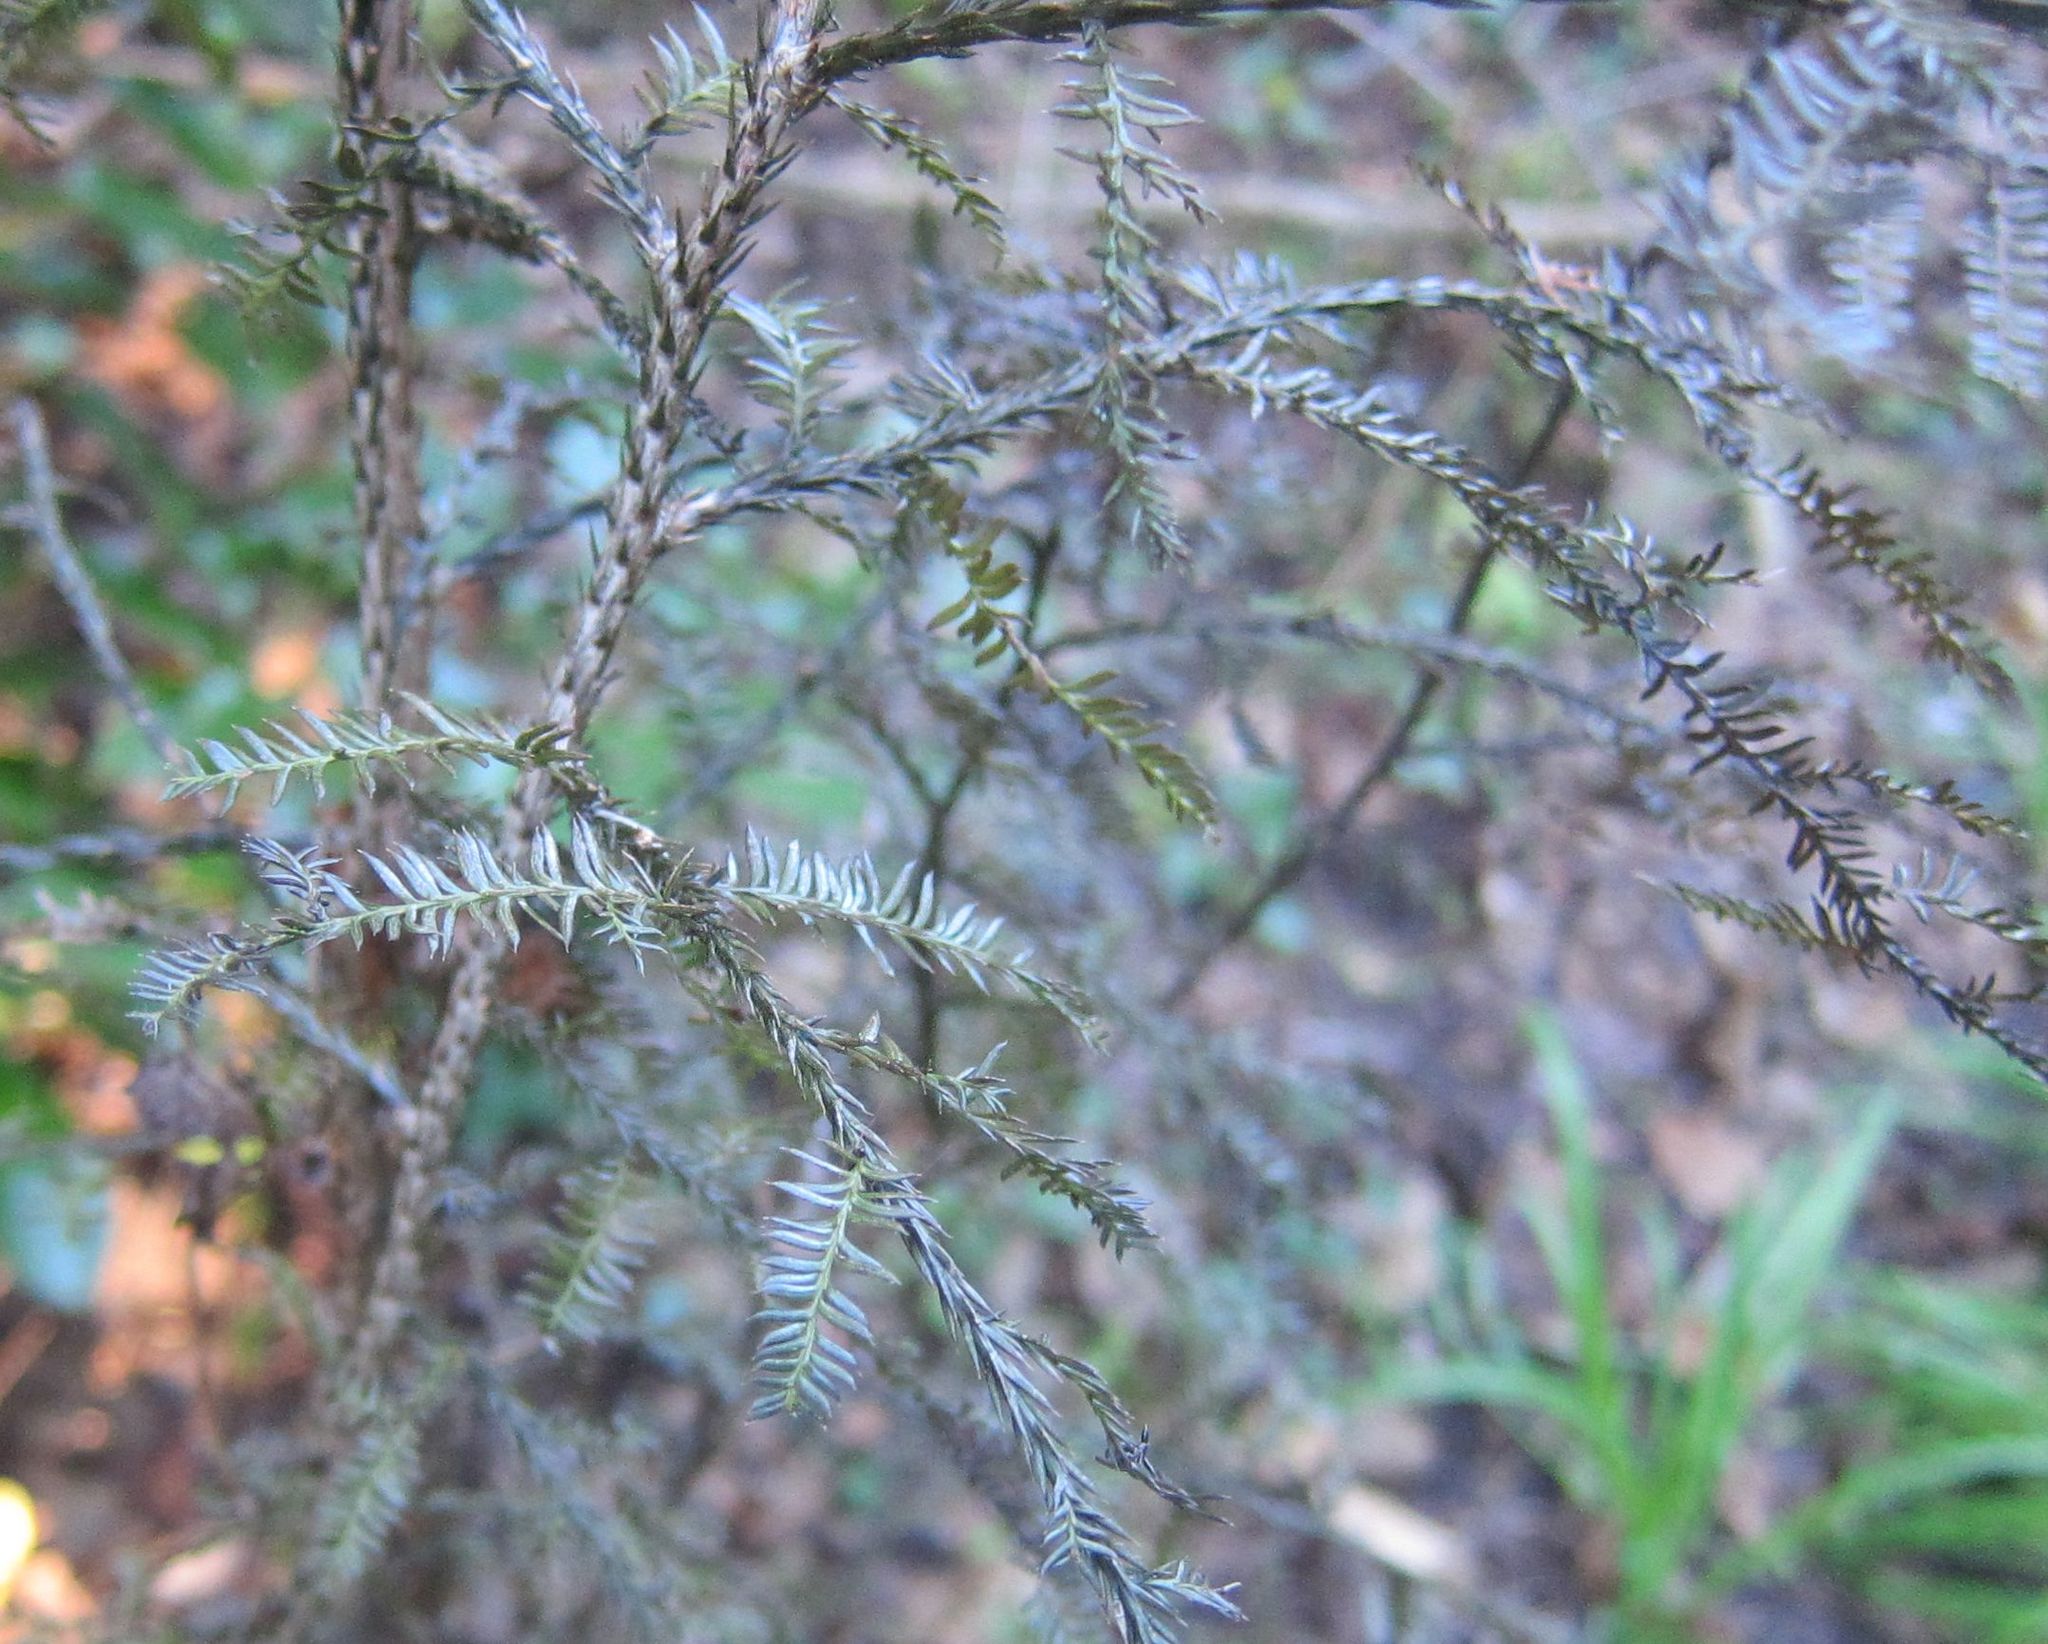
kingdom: Plantae
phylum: Tracheophyta
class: Pinopsida
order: Pinales
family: Podocarpaceae
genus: Dacrycarpus
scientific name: Dacrycarpus dacrydioides
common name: White pine
